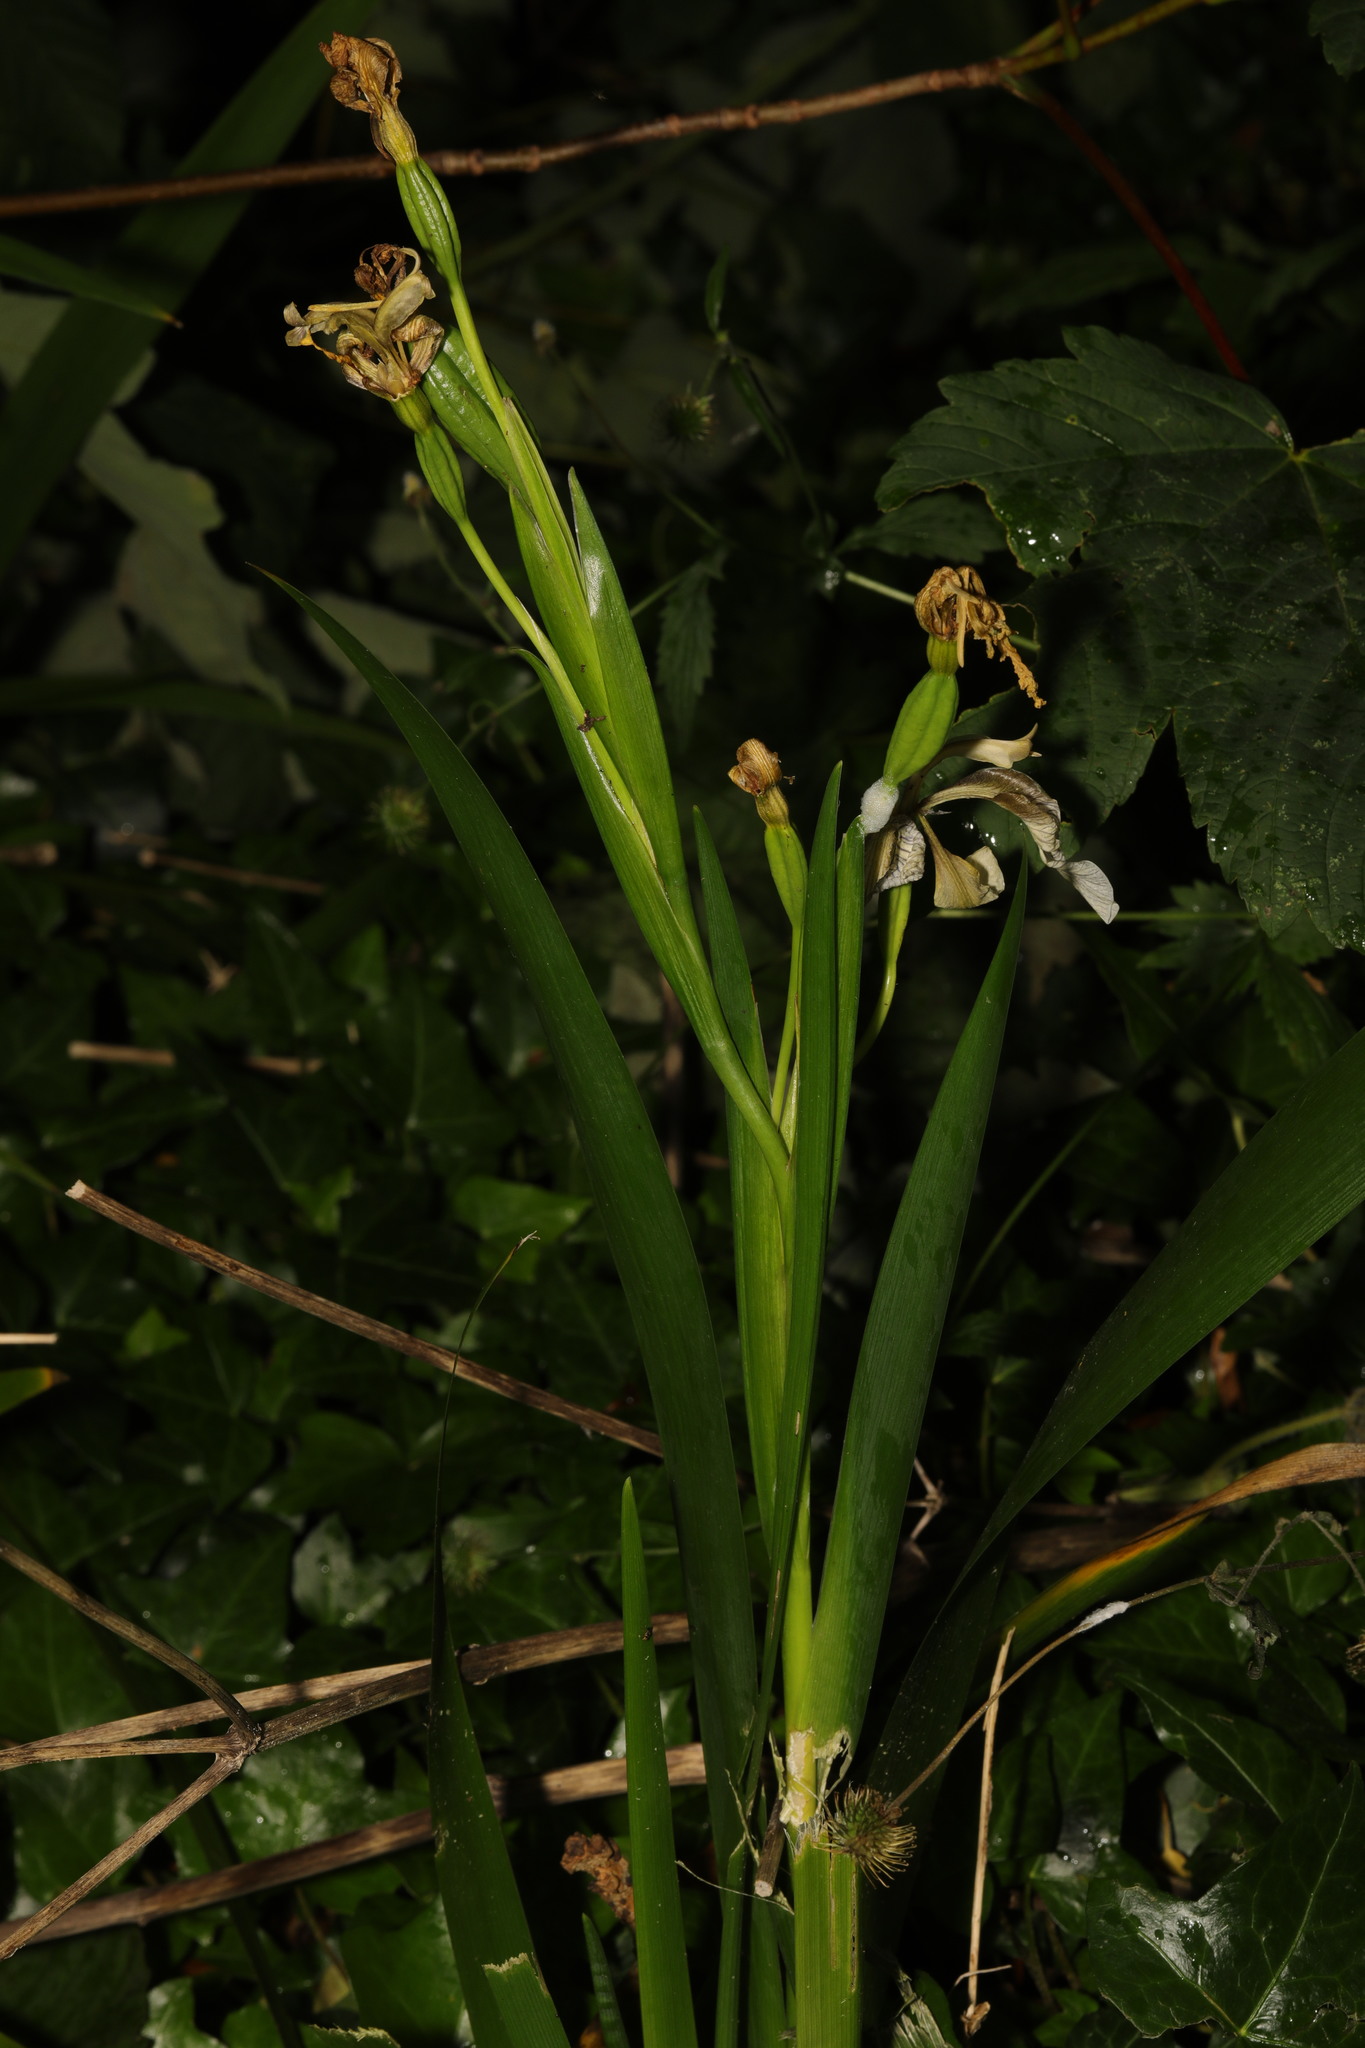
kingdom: Plantae
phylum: Tracheophyta
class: Liliopsida
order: Asparagales
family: Iridaceae
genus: Iris
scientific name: Iris foetidissima
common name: Stinking iris
